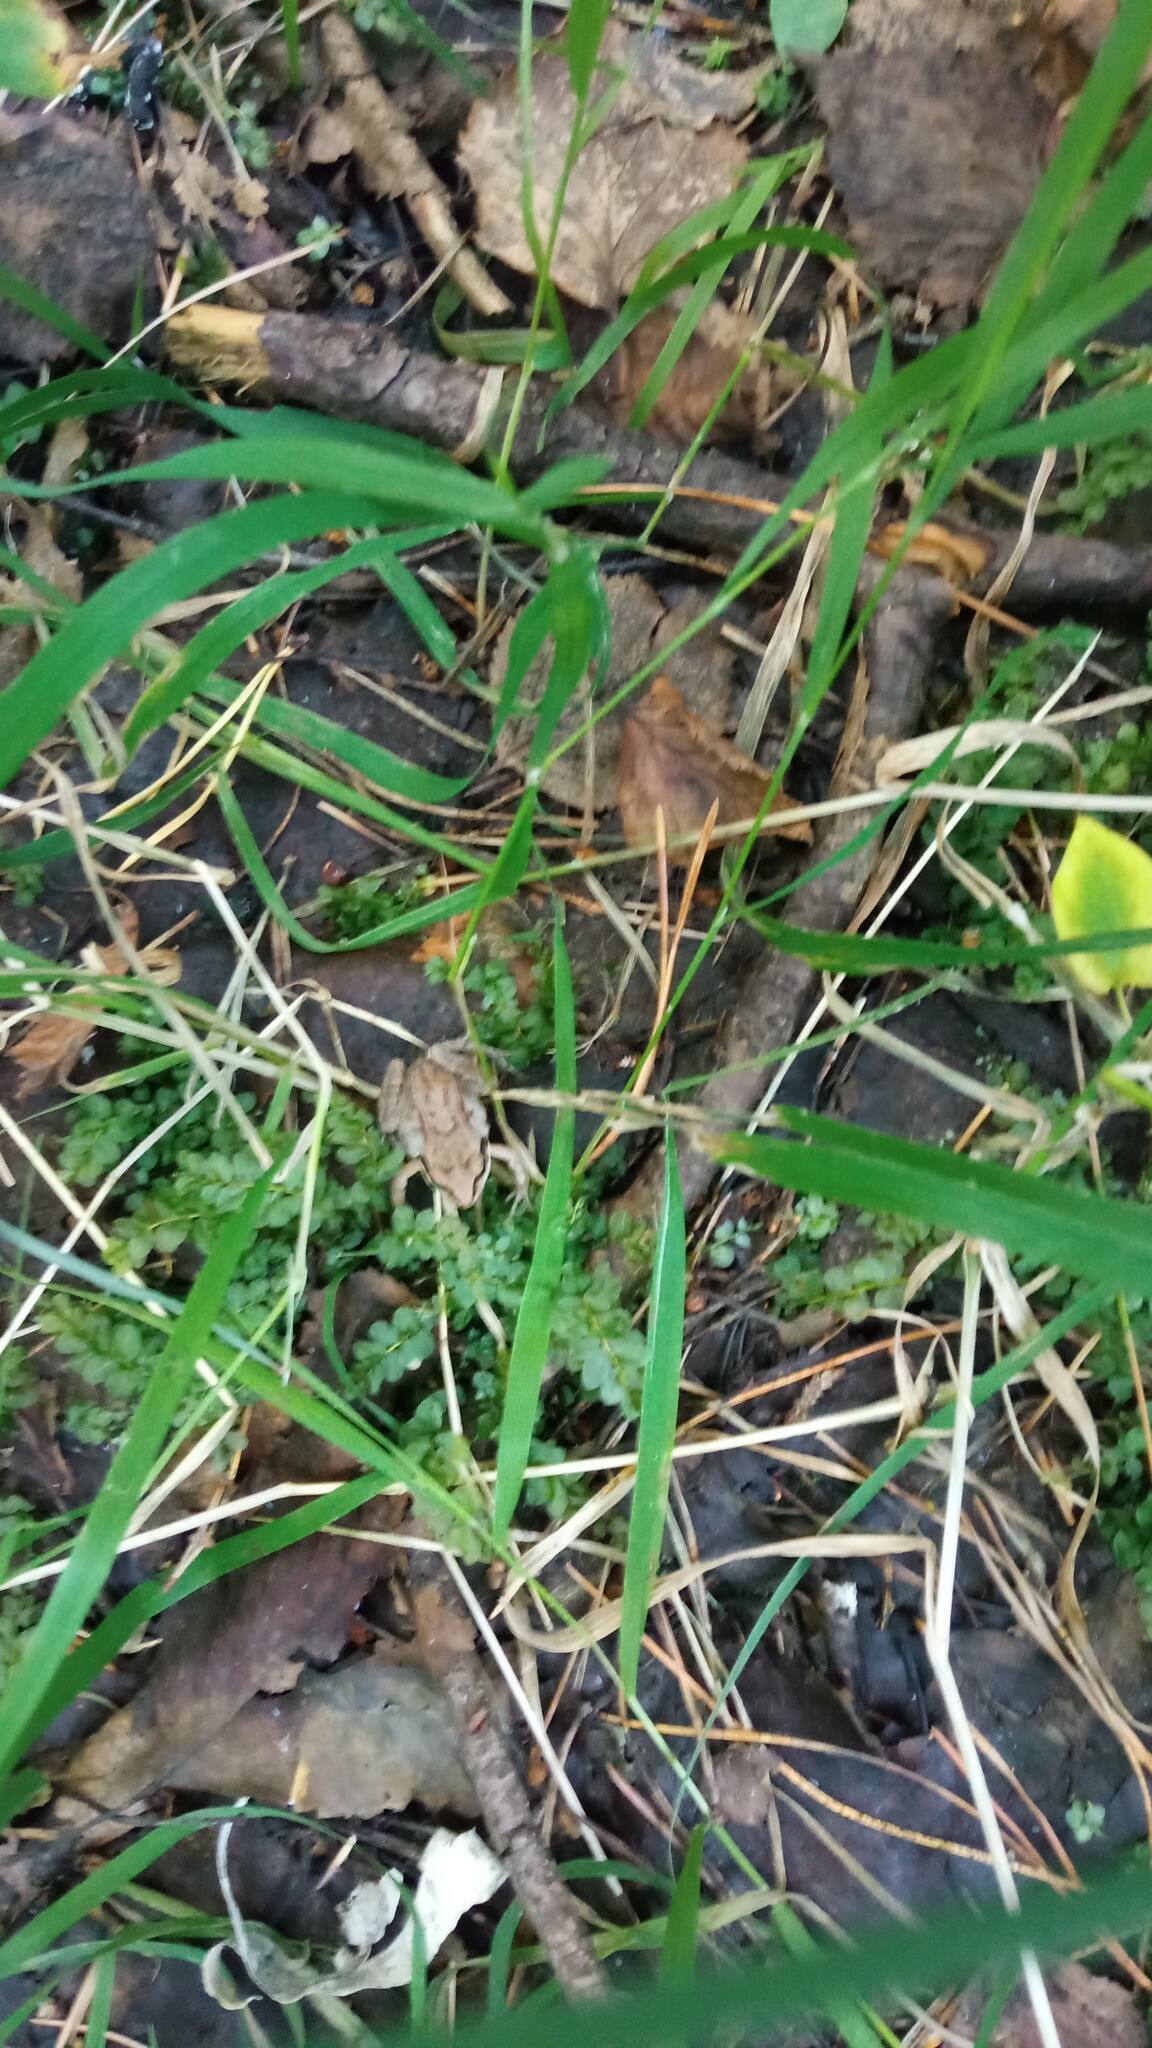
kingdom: Animalia
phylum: Chordata
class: Amphibia
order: Anura
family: Ranidae
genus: Rana
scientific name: Rana arvalis
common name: Moor frog
